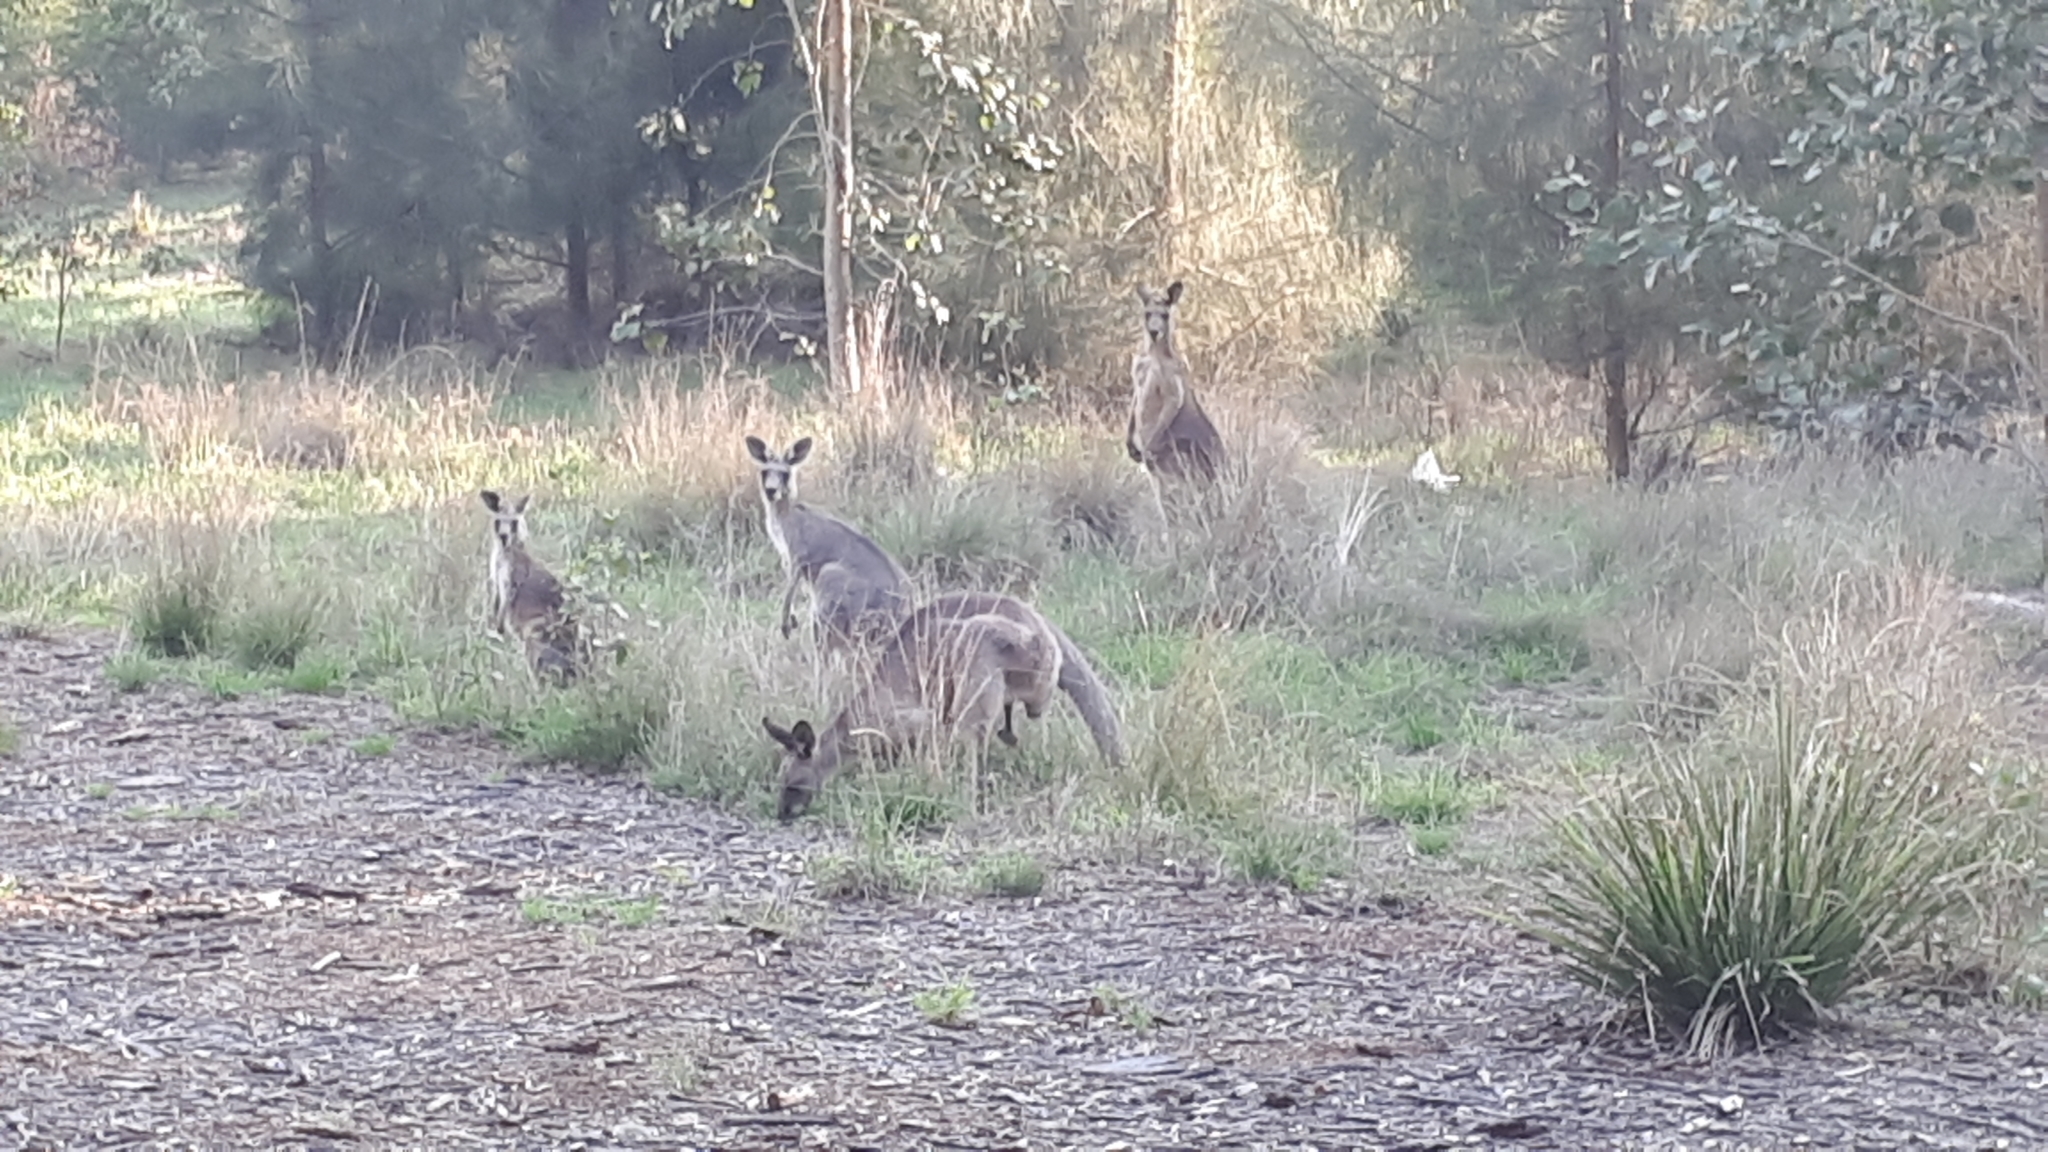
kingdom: Animalia
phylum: Chordata
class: Mammalia
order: Diprotodontia
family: Macropodidae
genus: Macropus
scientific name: Macropus giganteus
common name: Eastern grey kangaroo
